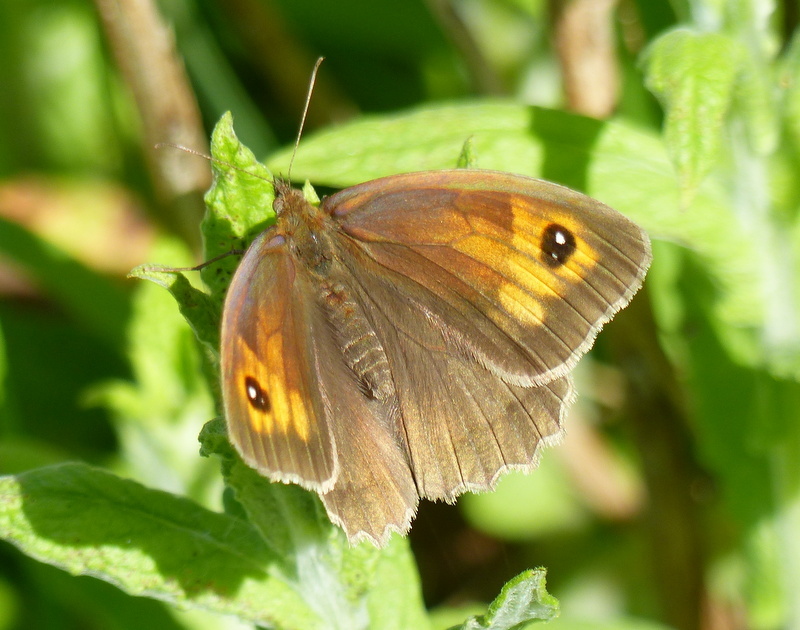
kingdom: Animalia
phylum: Arthropoda
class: Insecta
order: Lepidoptera
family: Nymphalidae
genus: Maniola
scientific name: Maniola jurtina
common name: Meadow brown
